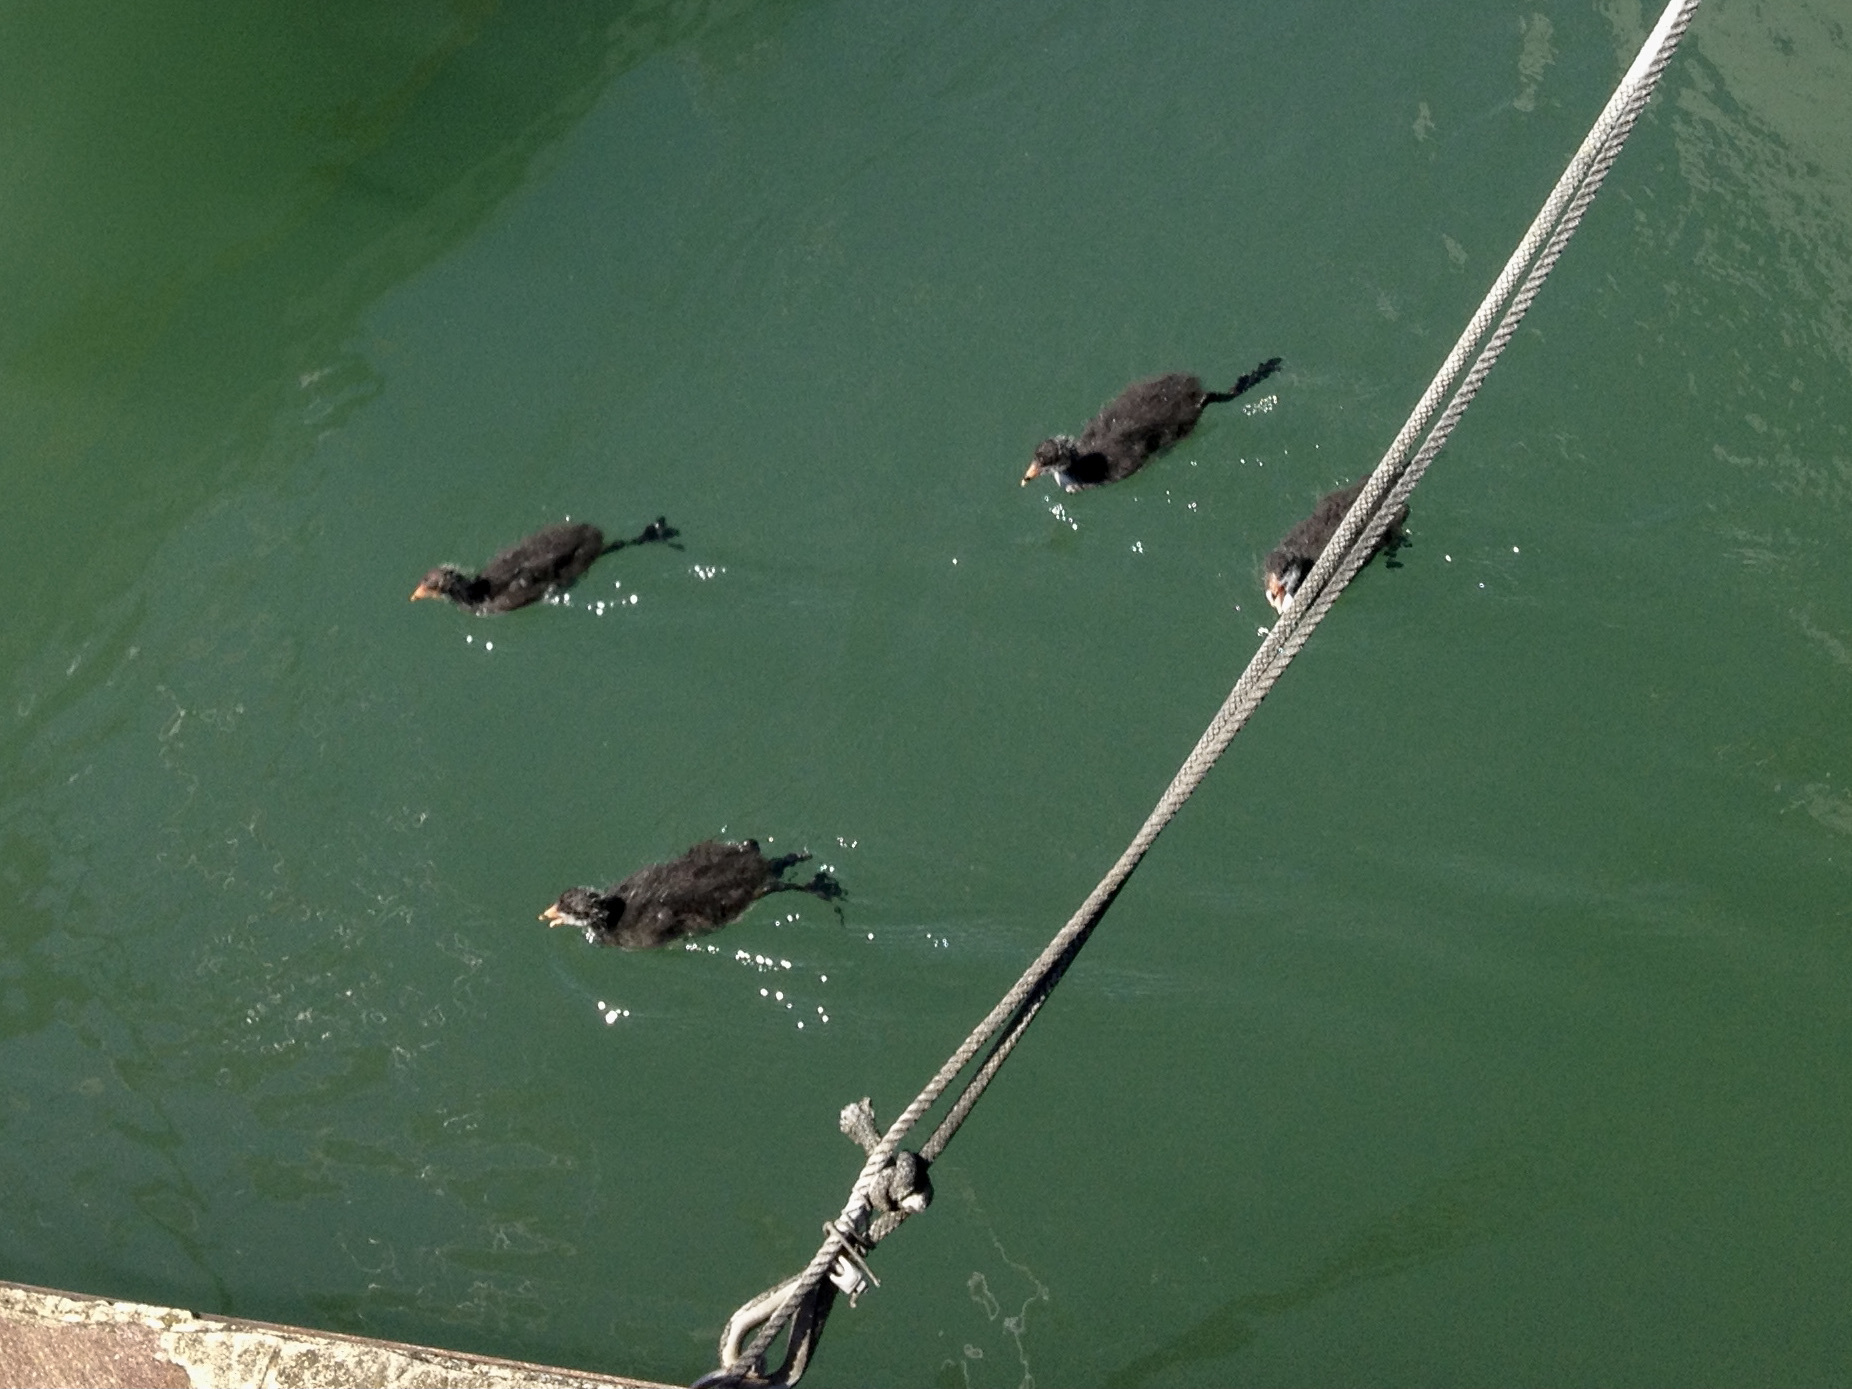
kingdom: Animalia
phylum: Chordata
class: Aves
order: Gruiformes
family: Rallidae
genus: Fulica
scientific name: Fulica atra
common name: Eurasian coot
